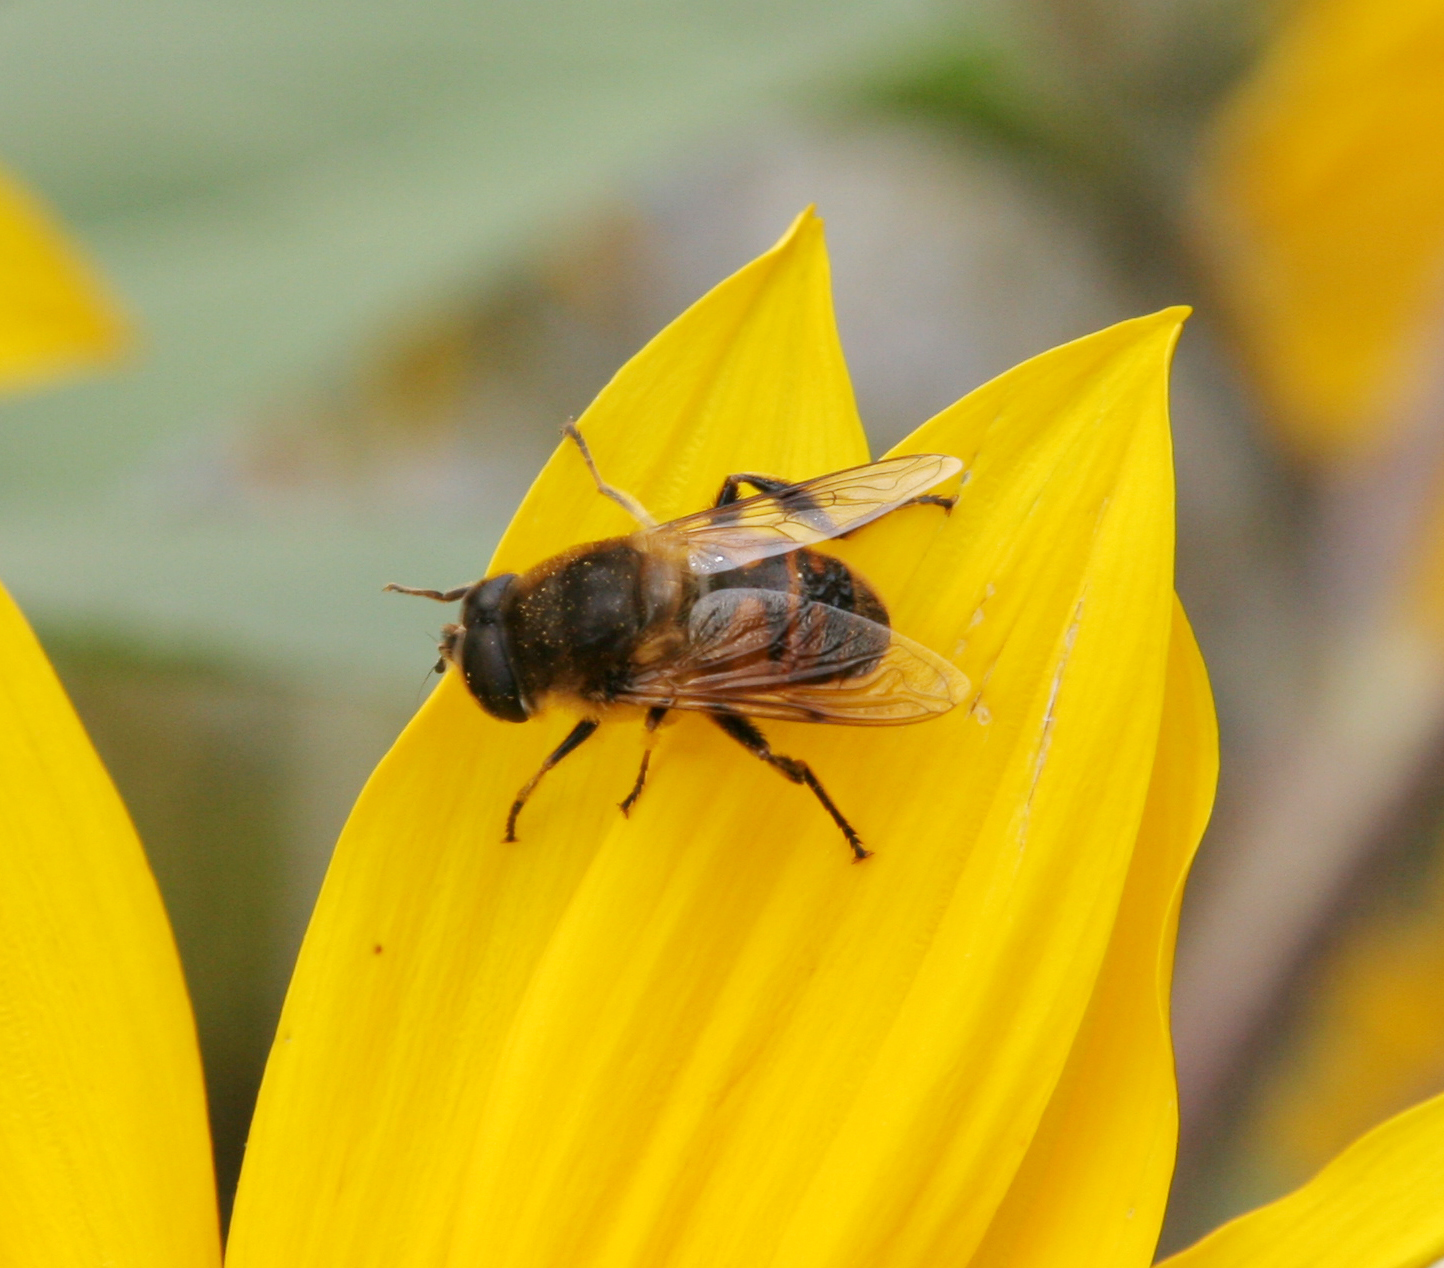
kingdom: Animalia
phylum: Arthropoda
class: Insecta
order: Diptera
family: Syrphidae
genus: Eristalis
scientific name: Eristalis tenax
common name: Drone fly
